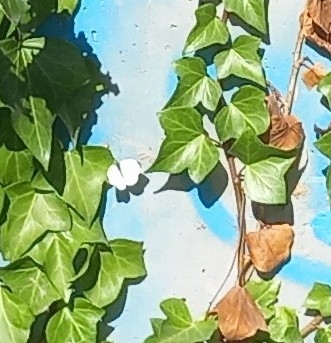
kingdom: Animalia
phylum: Arthropoda
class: Insecta
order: Lepidoptera
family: Pieridae
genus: Pieris
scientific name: Pieris rapae
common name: Small white
